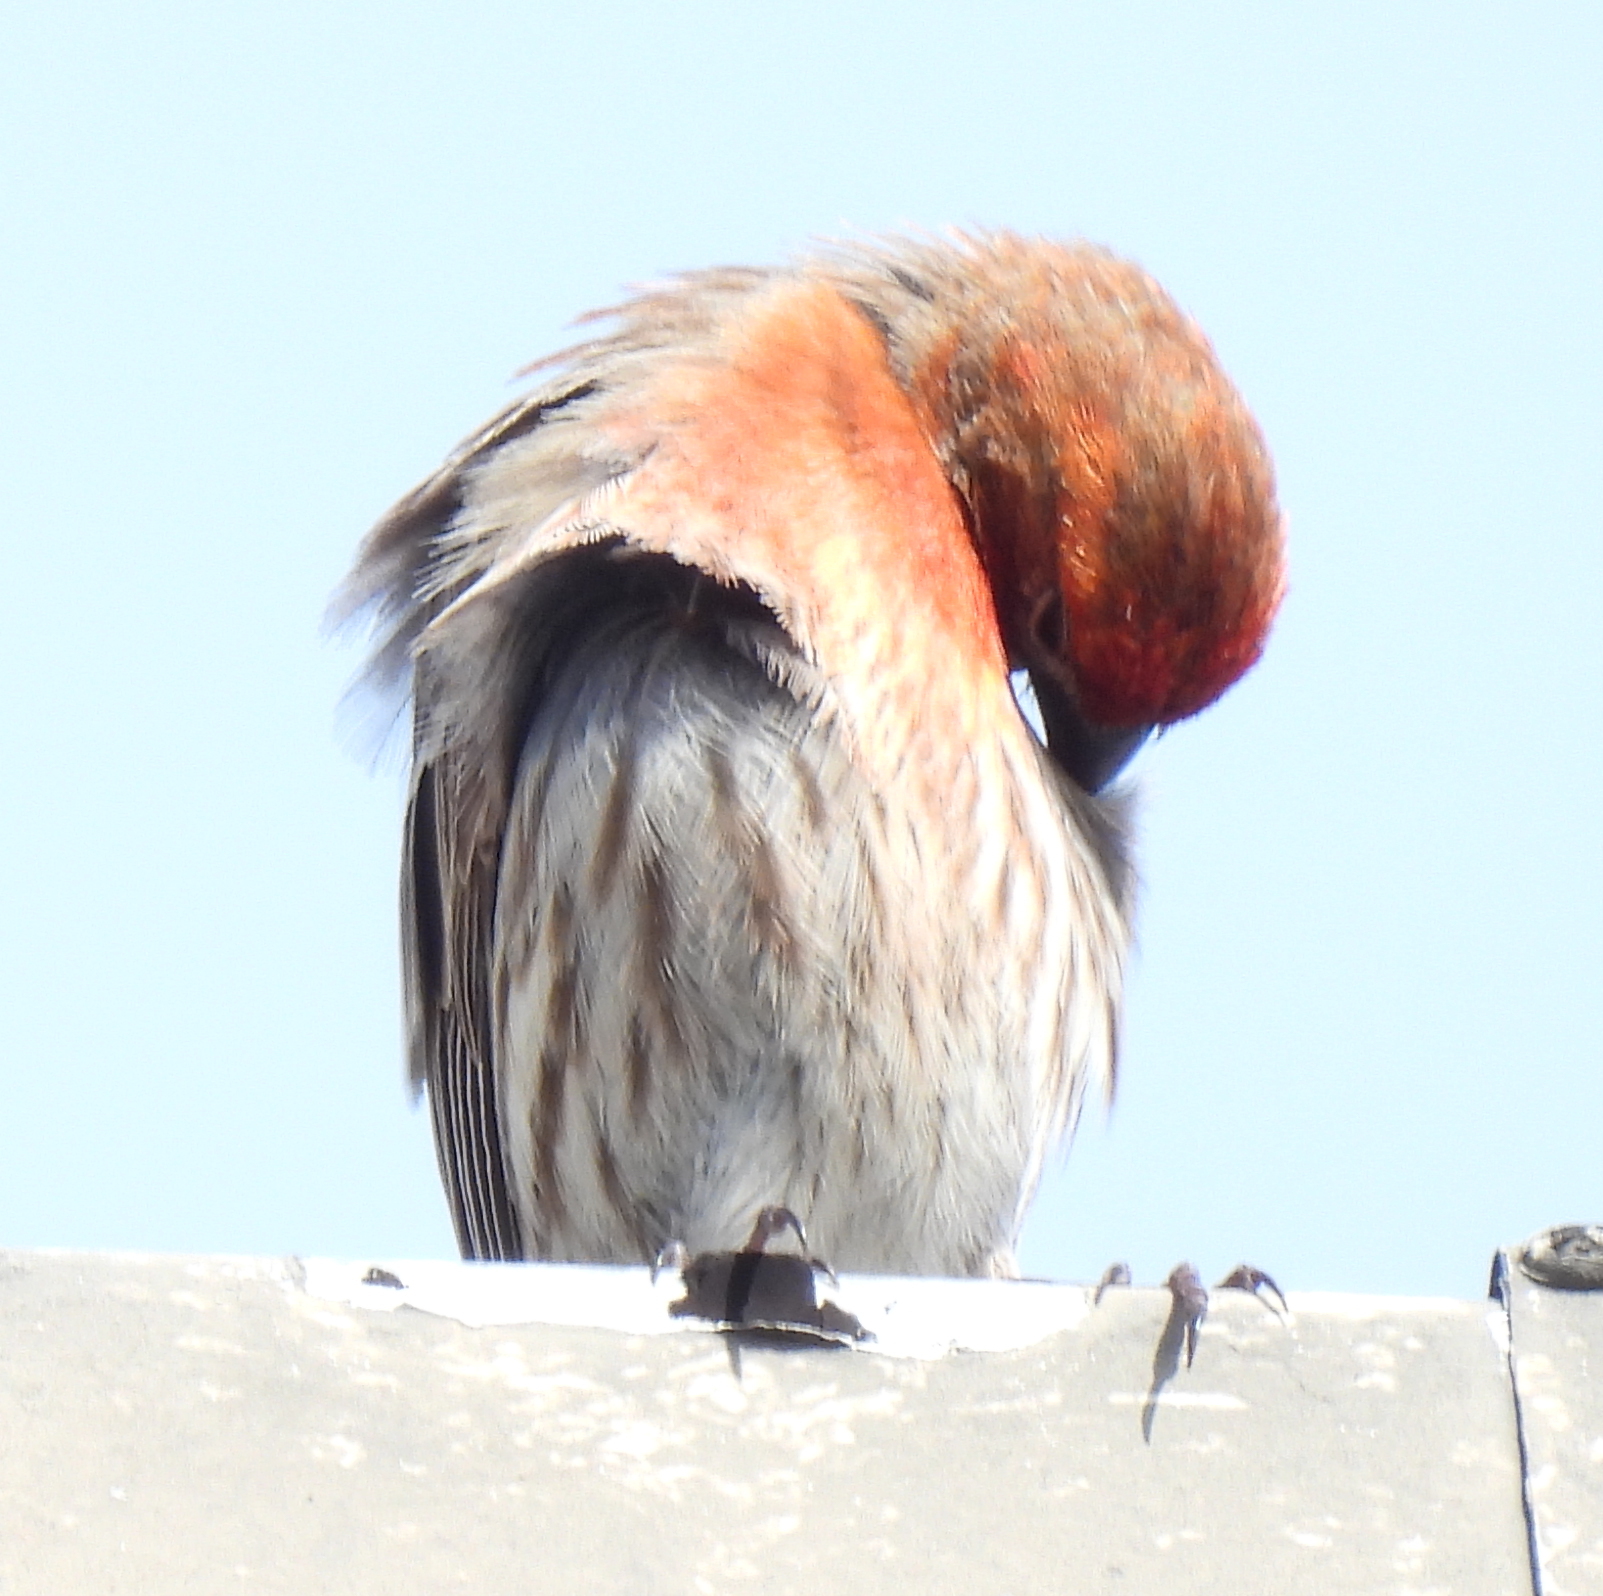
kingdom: Animalia
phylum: Chordata
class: Aves
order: Passeriformes
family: Fringillidae
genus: Haemorhous
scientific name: Haemorhous mexicanus
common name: House finch
